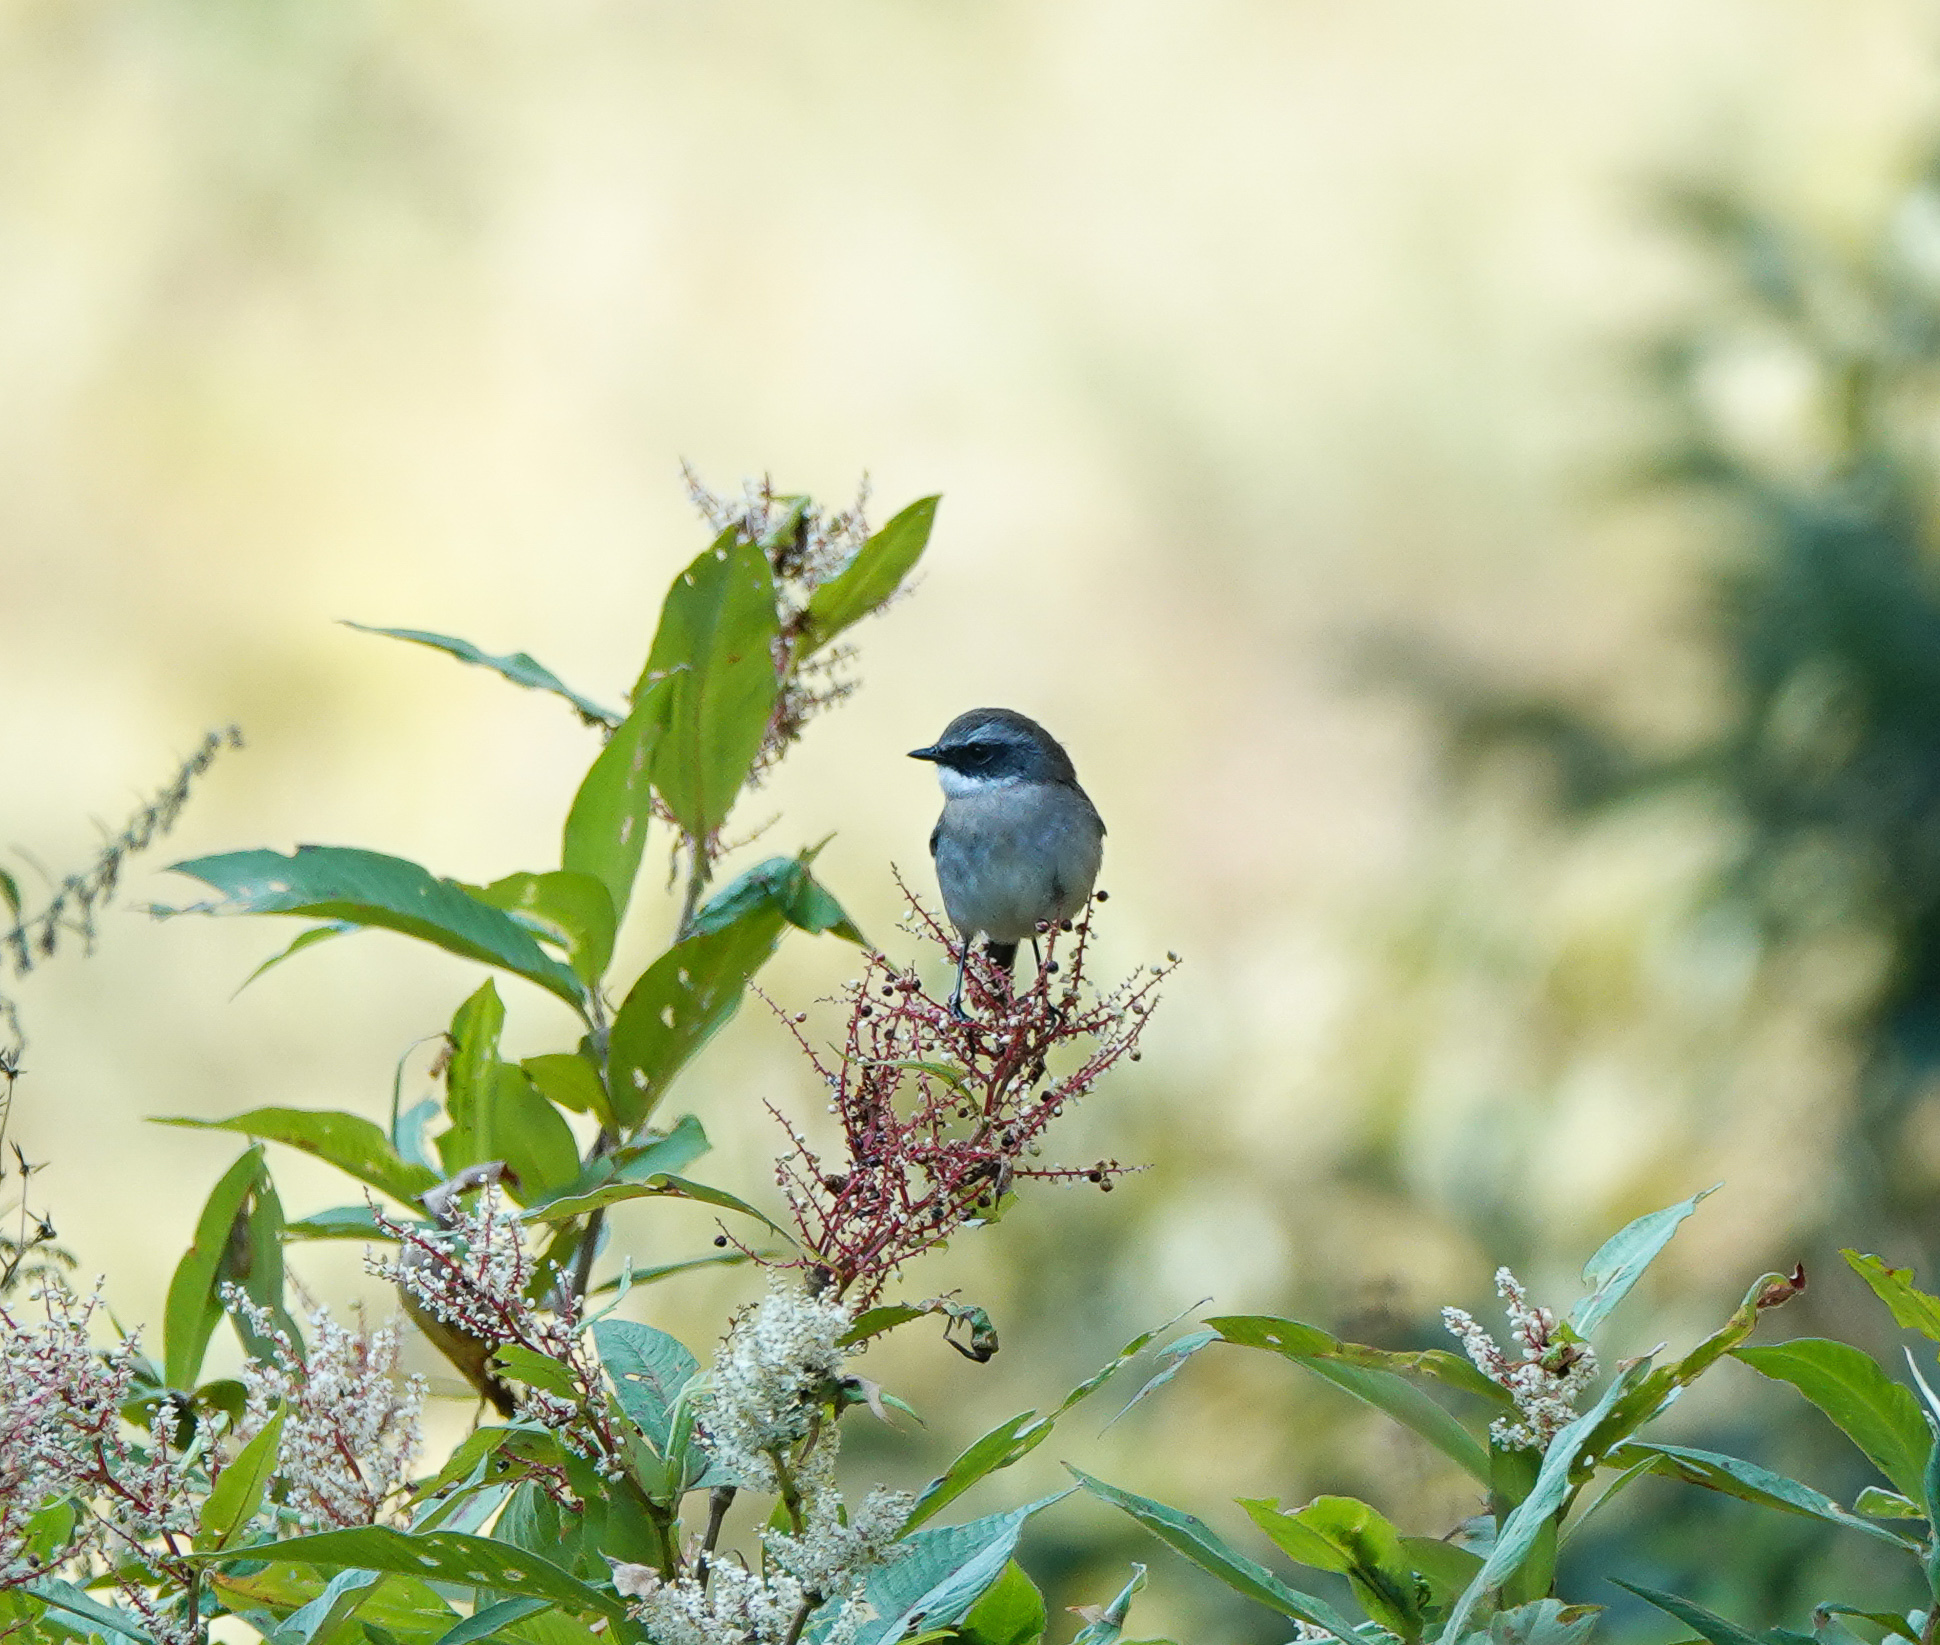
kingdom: Animalia
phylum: Chordata
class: Aves
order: Passeriformes
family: Muscicapidae
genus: Saxicola
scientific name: Saxicola ferreus
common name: Grey bush chat
